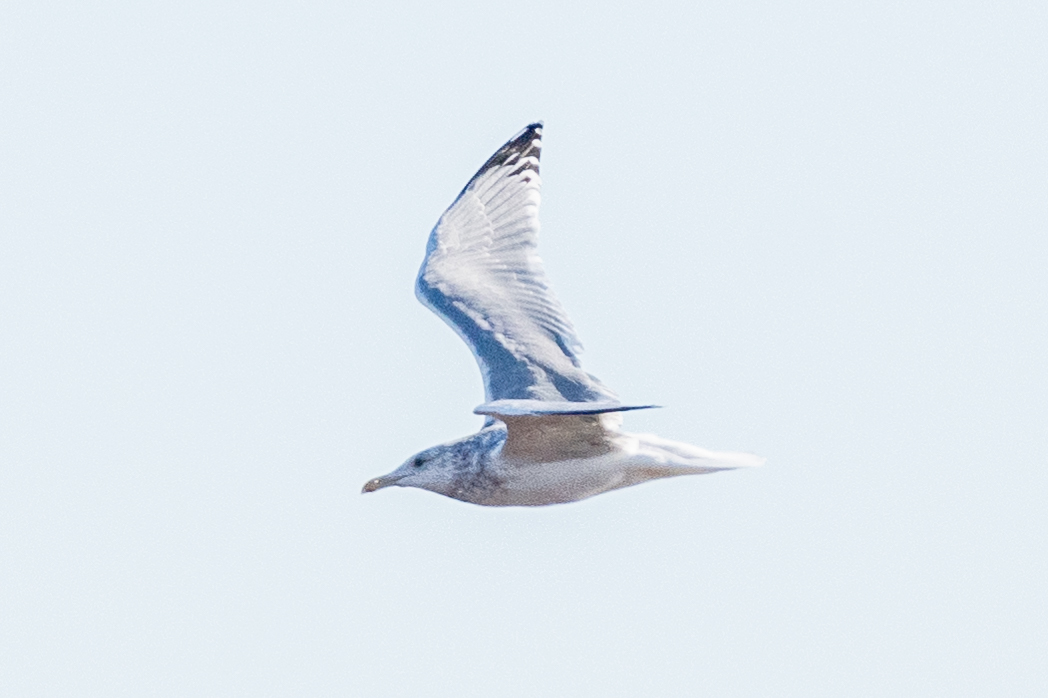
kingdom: Animalia
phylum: Chordata
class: Aves
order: Charadriiformes
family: Laridae
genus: Larus
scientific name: Larus argentatus
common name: Herring gull
